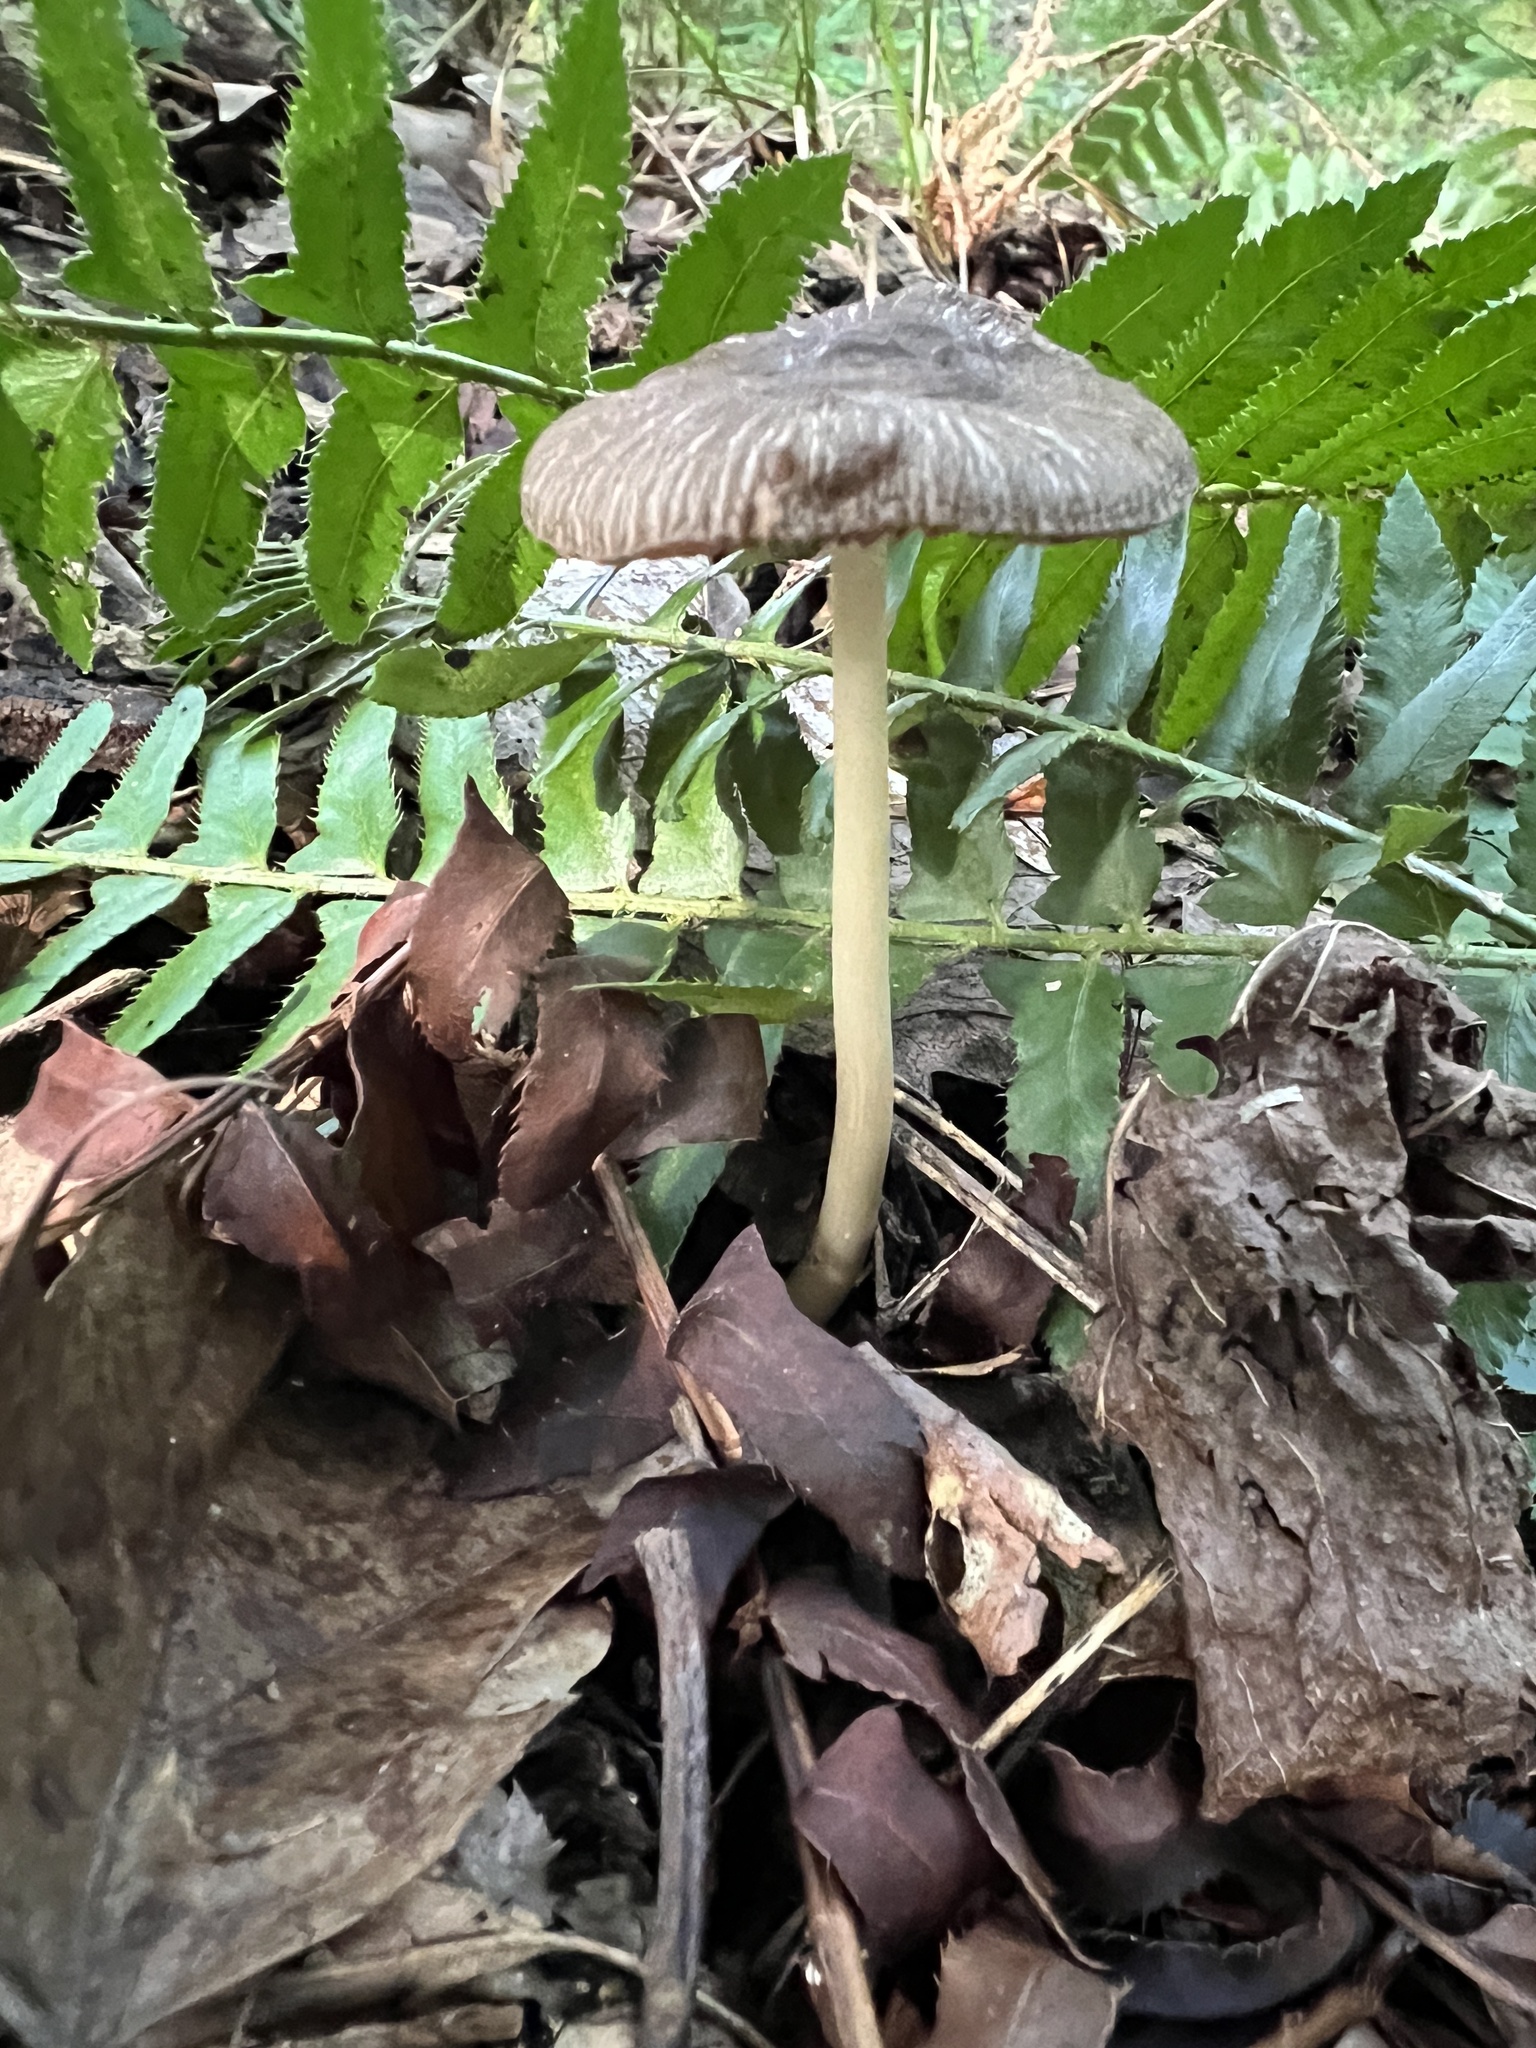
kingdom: Fungi
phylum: Basidiomycota
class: Agaricomycetes
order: Agaricales
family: Pluteaceae
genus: Pluteus
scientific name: Pluteus deceptivus
